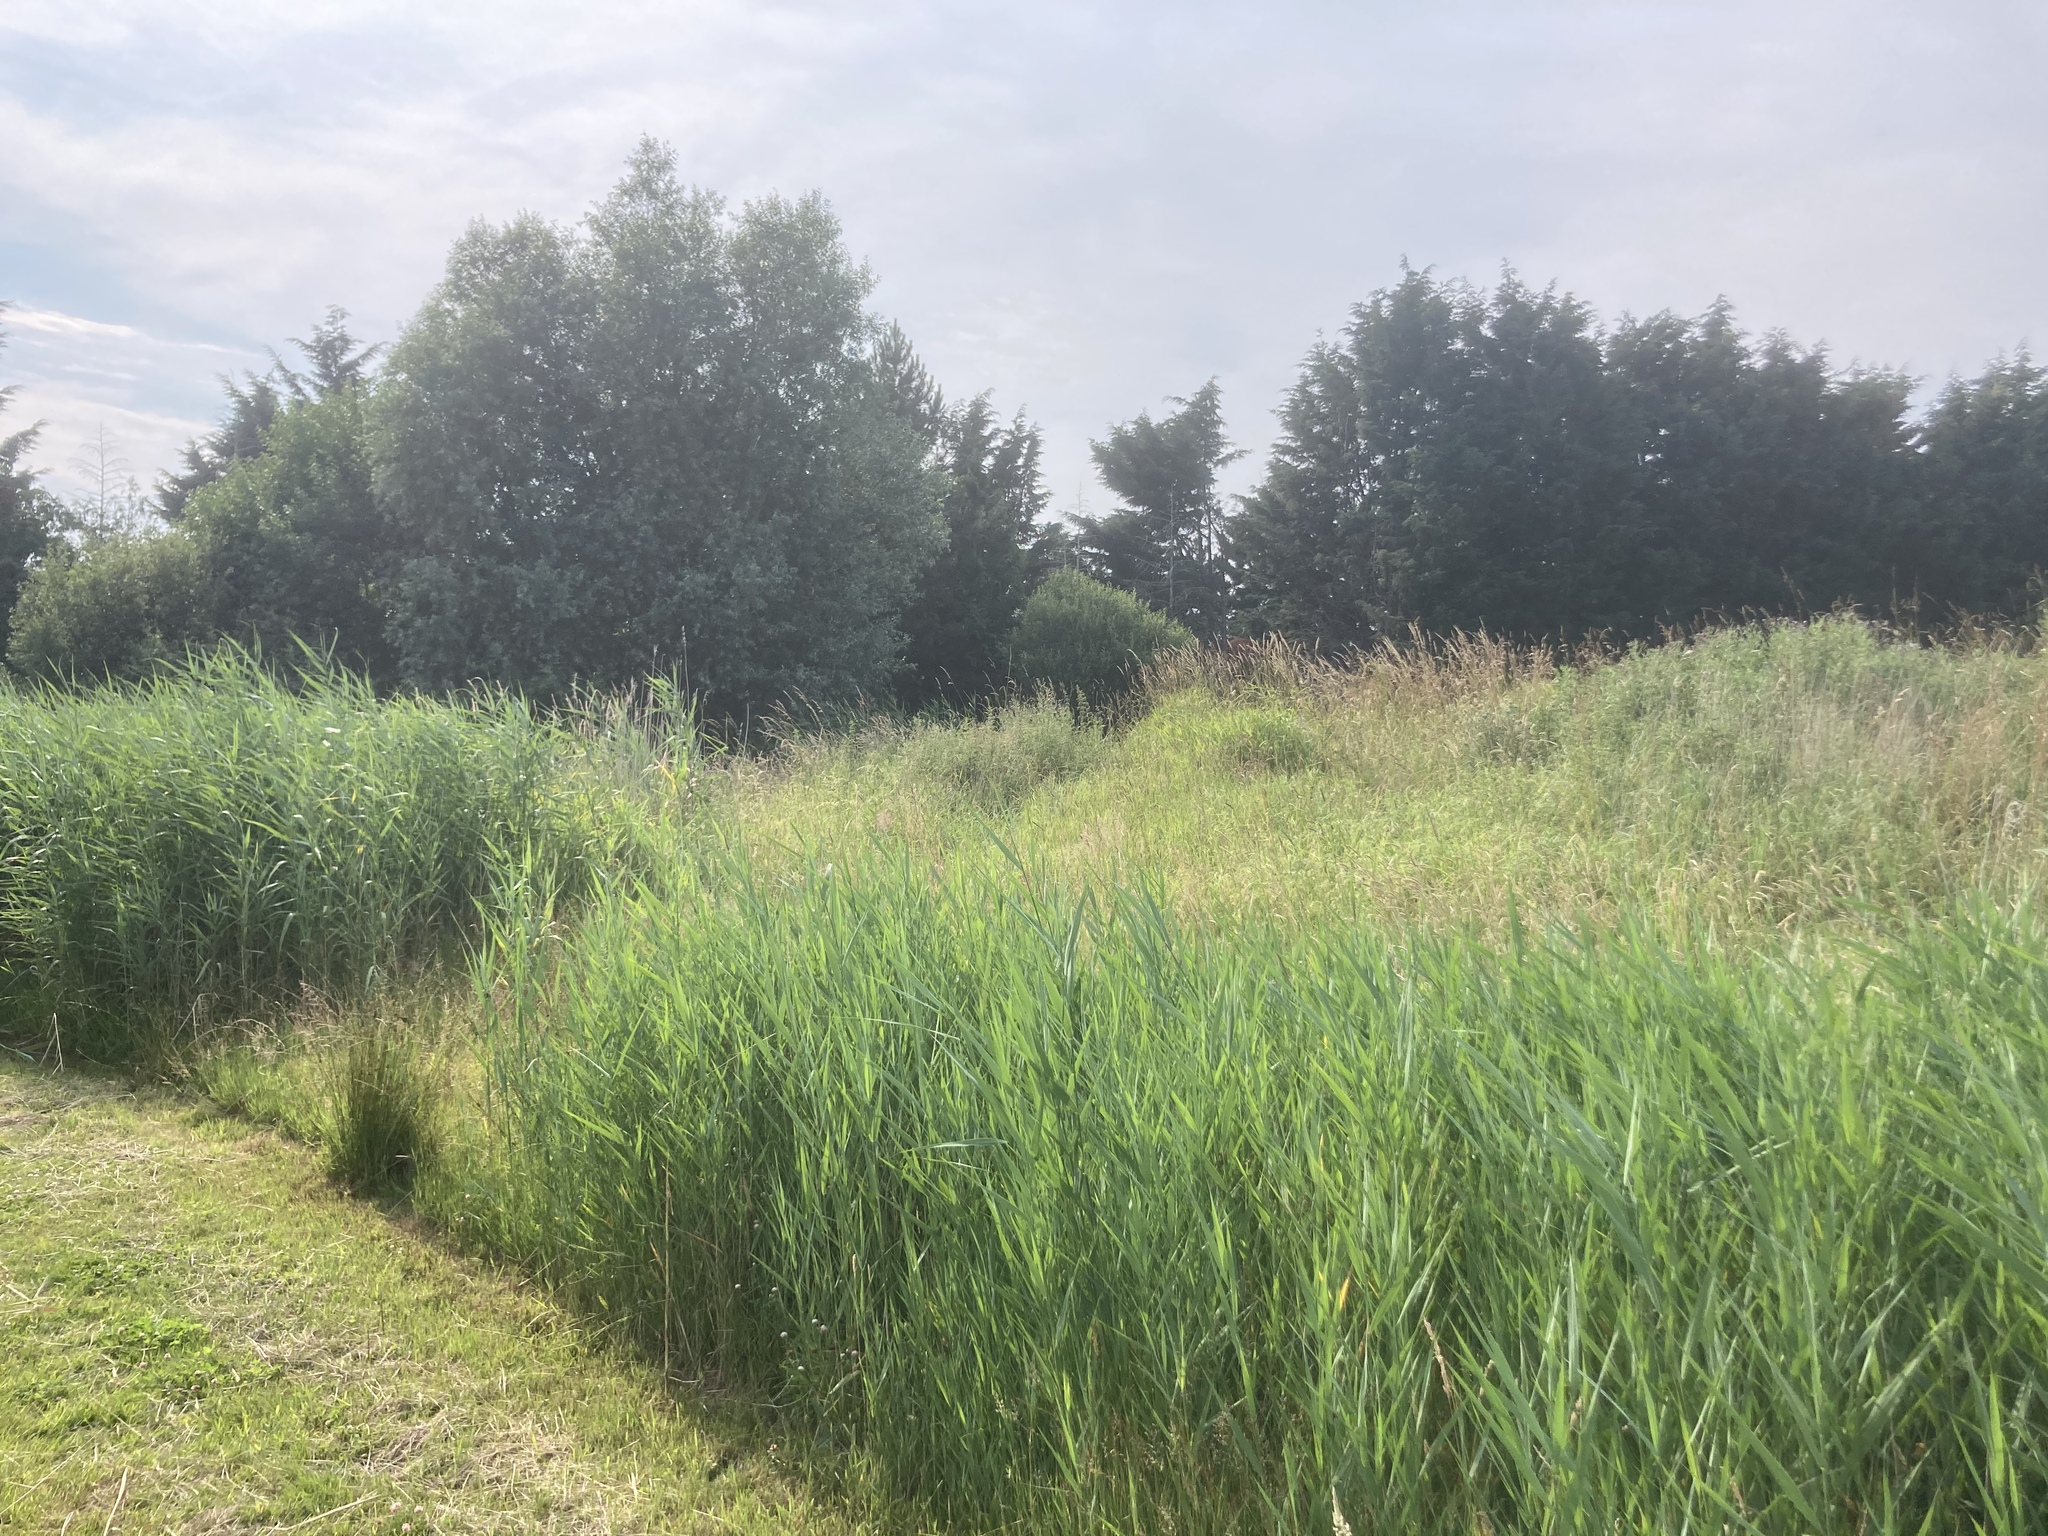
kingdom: Plantae
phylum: Tracheophyta
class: Liliopsida
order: Poales
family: Poaceae
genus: Phragmites
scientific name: Phragmites australis
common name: Common reed
